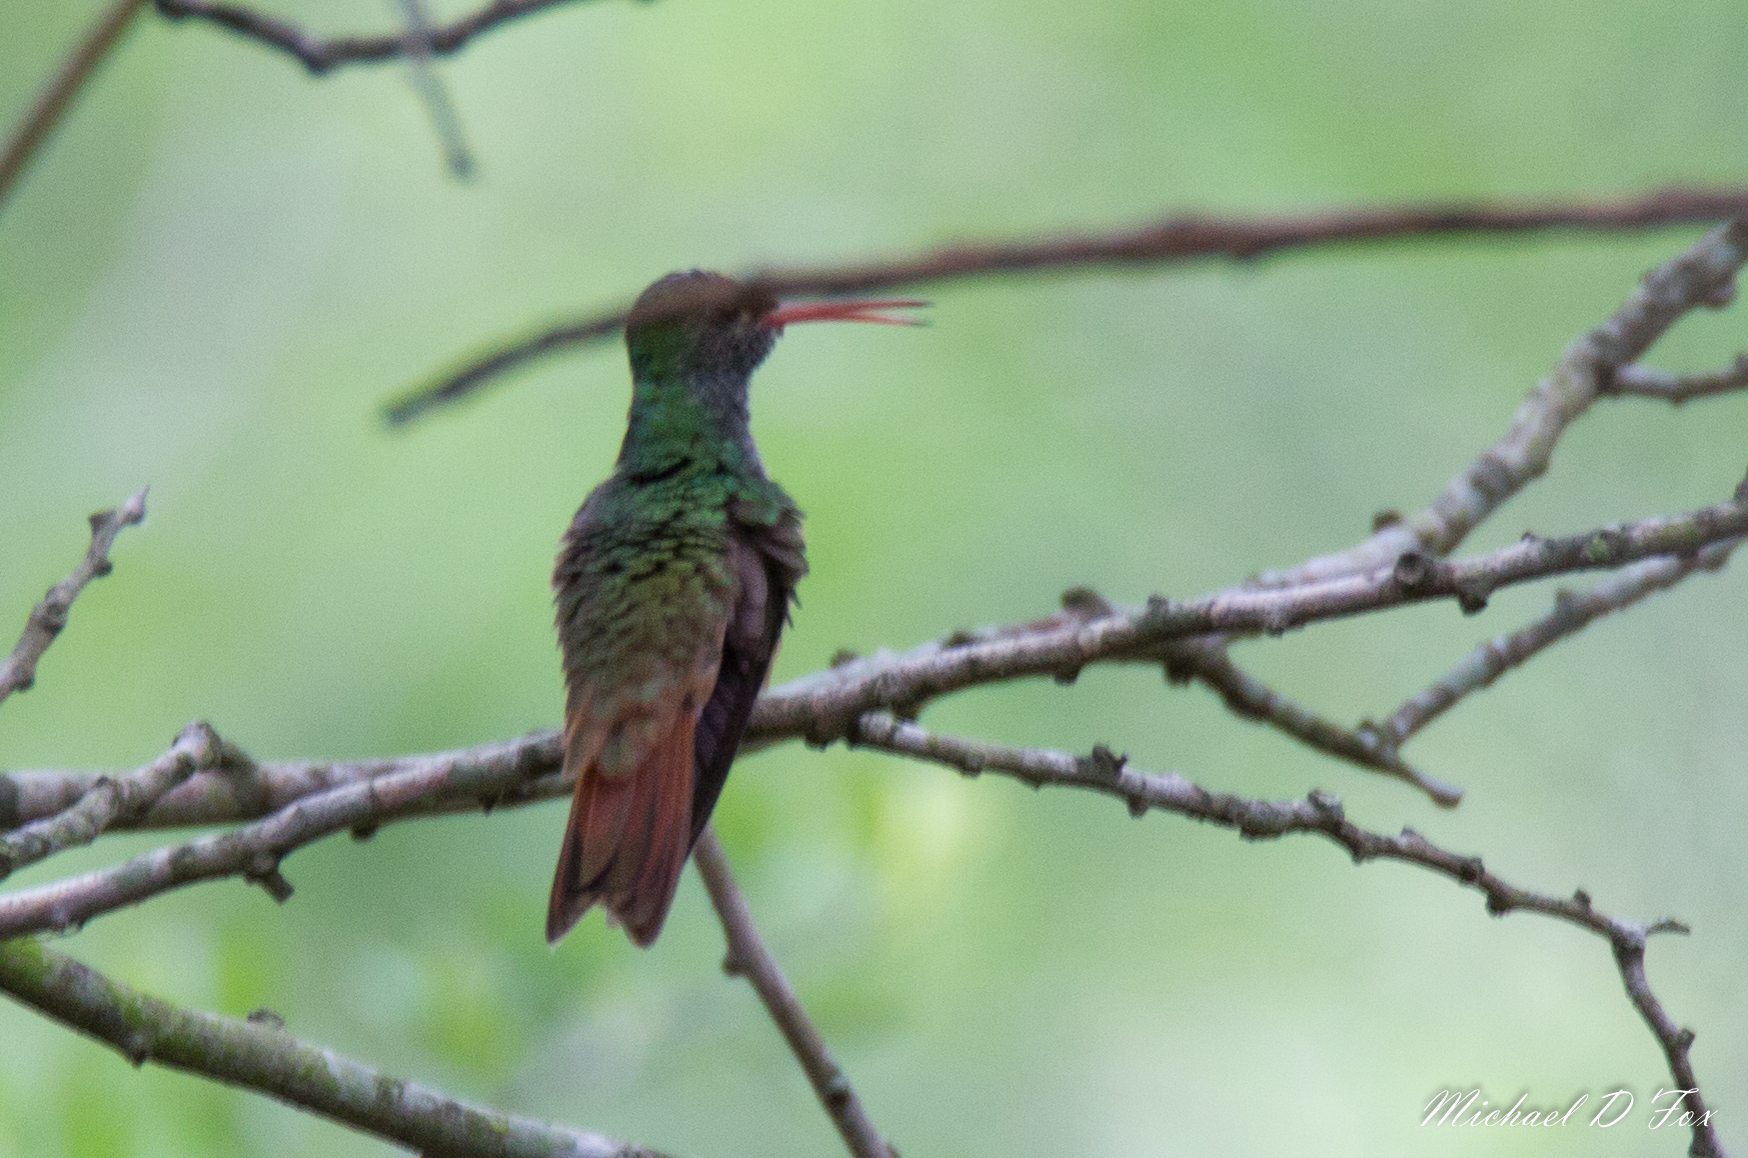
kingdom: Animalia
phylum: Chordata
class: Aves
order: Apodiformes
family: Trochilidae
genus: Amazilia
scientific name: Amazilia yucatanensis
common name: Buff-bellied hummingbird
